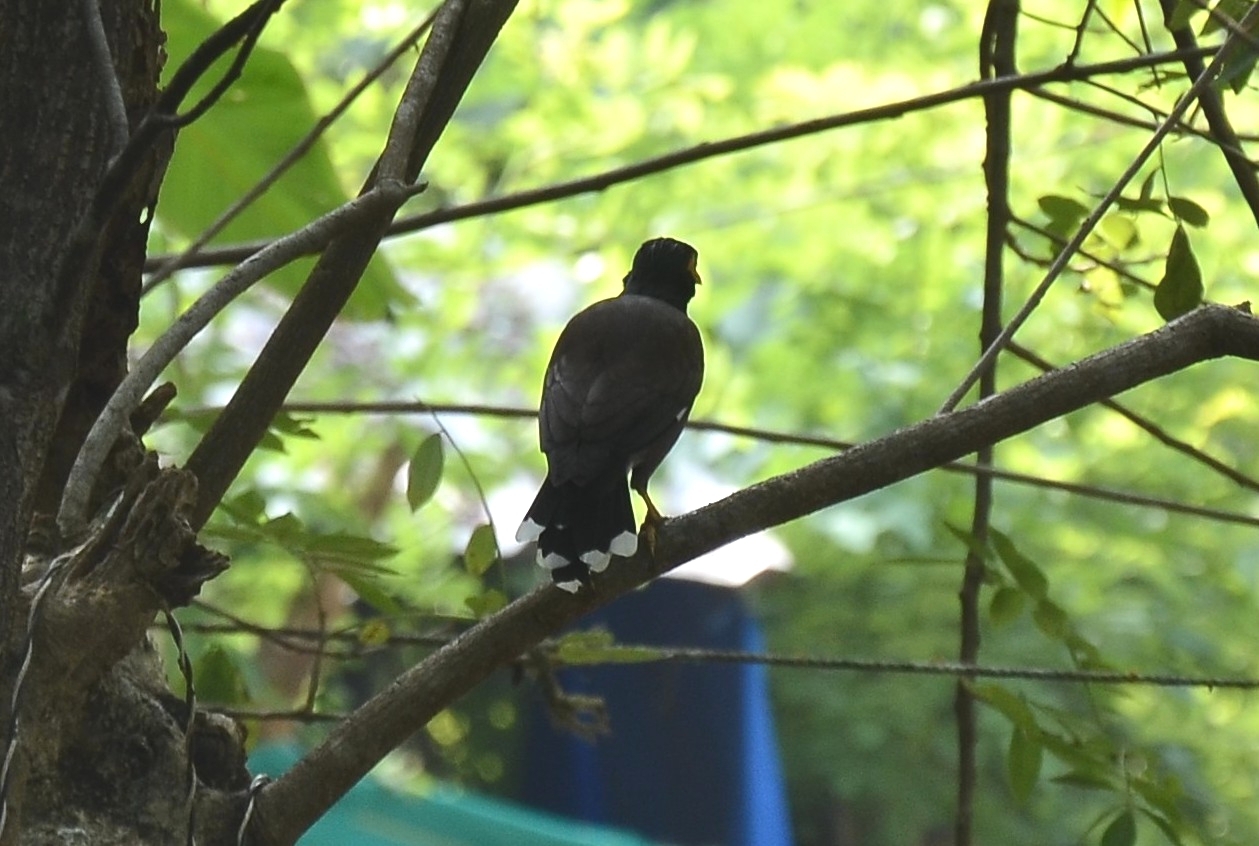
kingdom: Animalia
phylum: Chordata
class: Aves
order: Passeriformes
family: Sturnidae
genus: Acridotheres
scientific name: Acridotheres tristis
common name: Common myna
